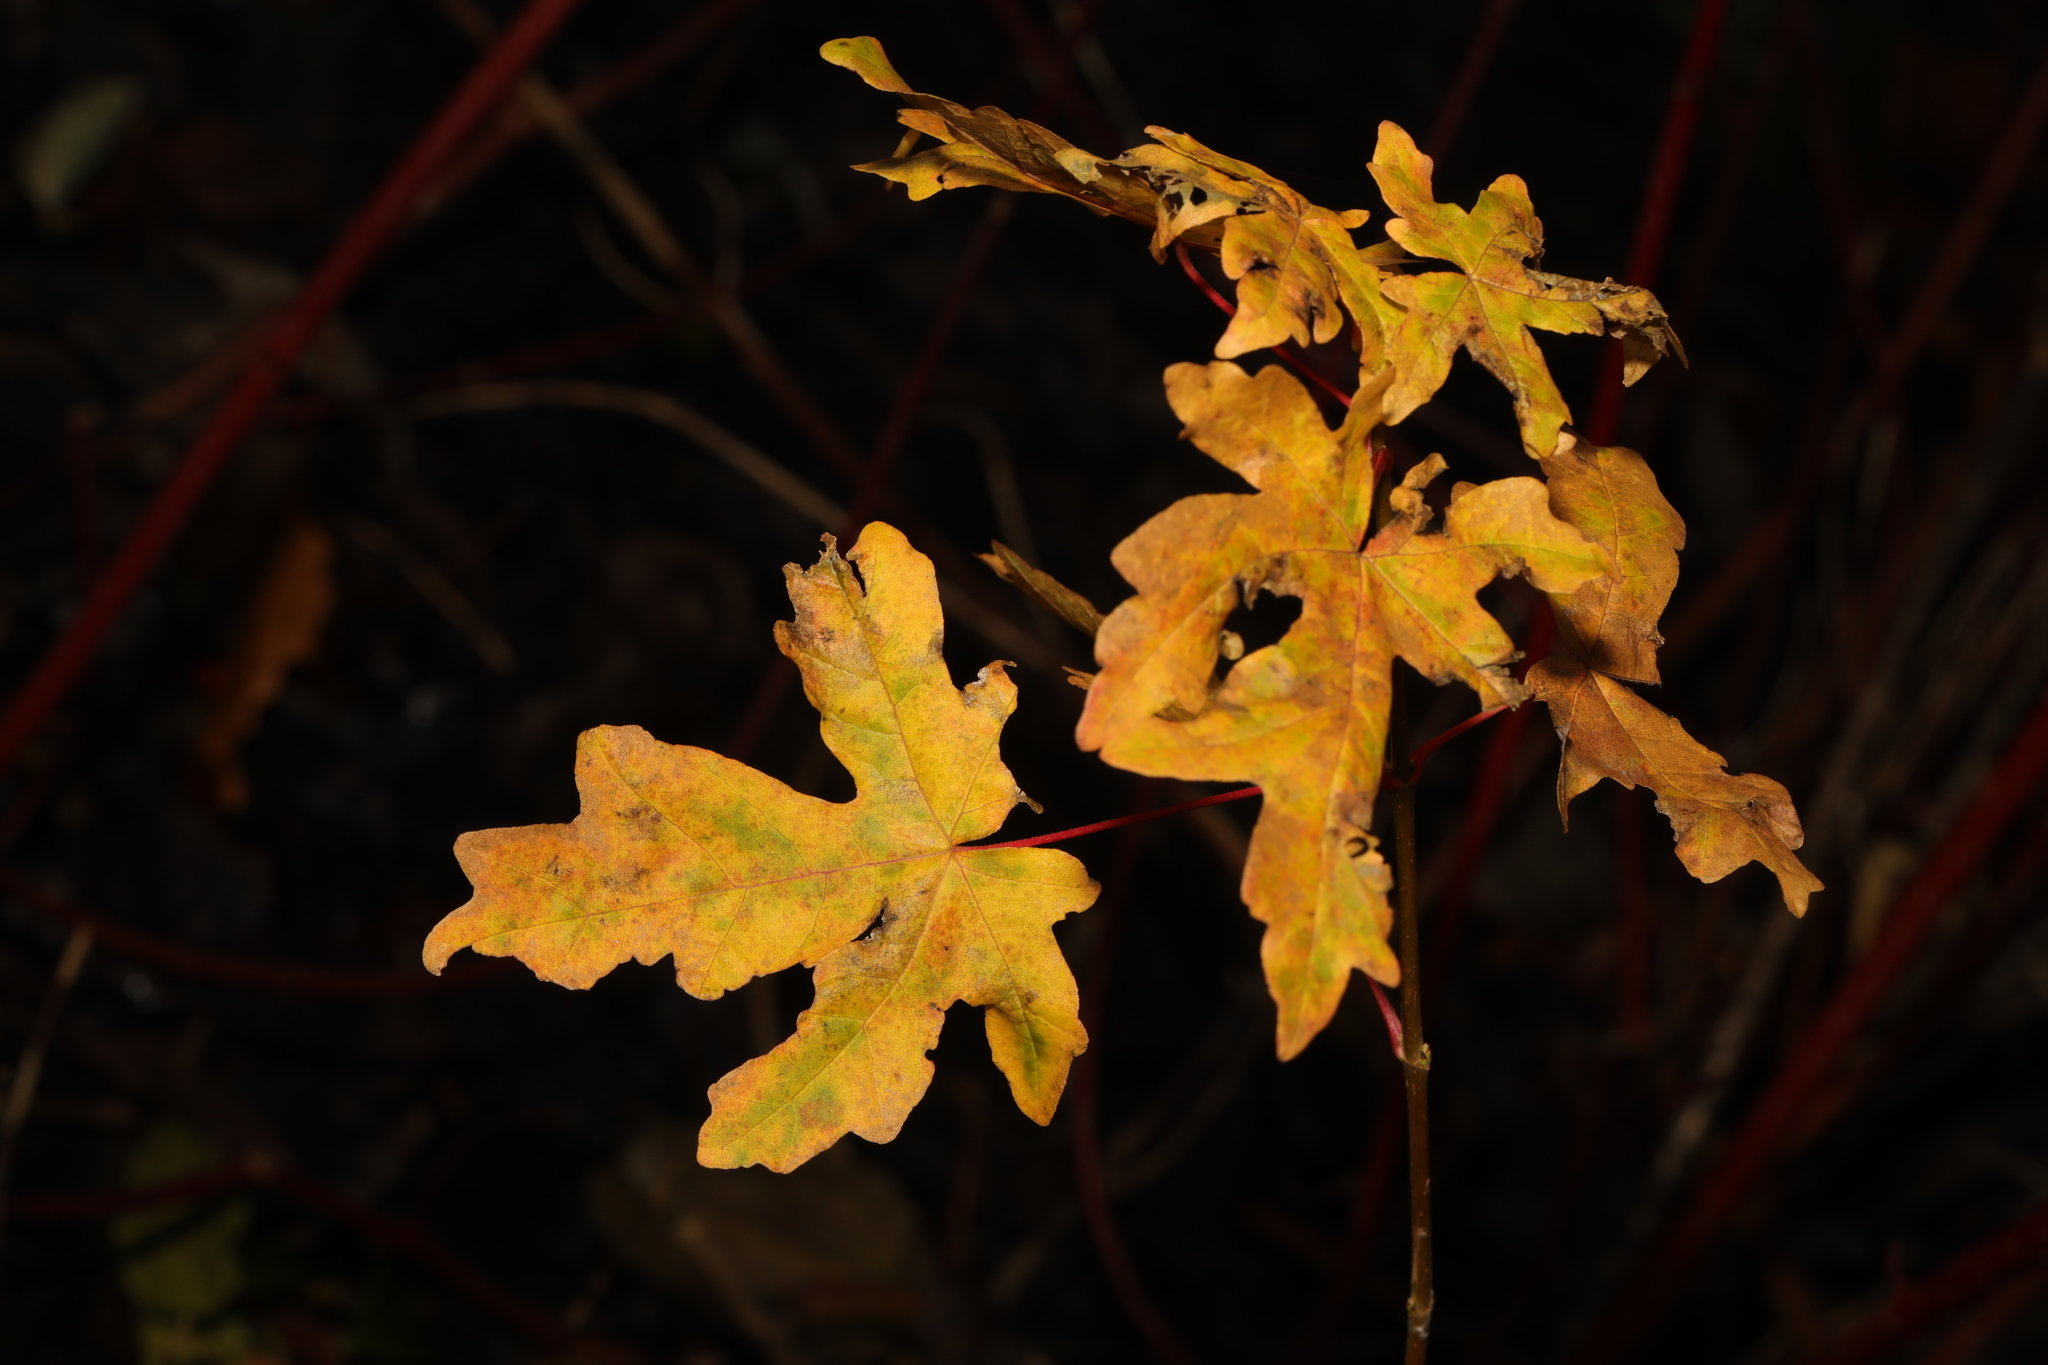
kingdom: Plantae
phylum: Tracheophyta
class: Magnoliopsida
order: Sapindales
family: Sapindaceae
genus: Acer
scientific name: Acer campestre
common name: Field maple
